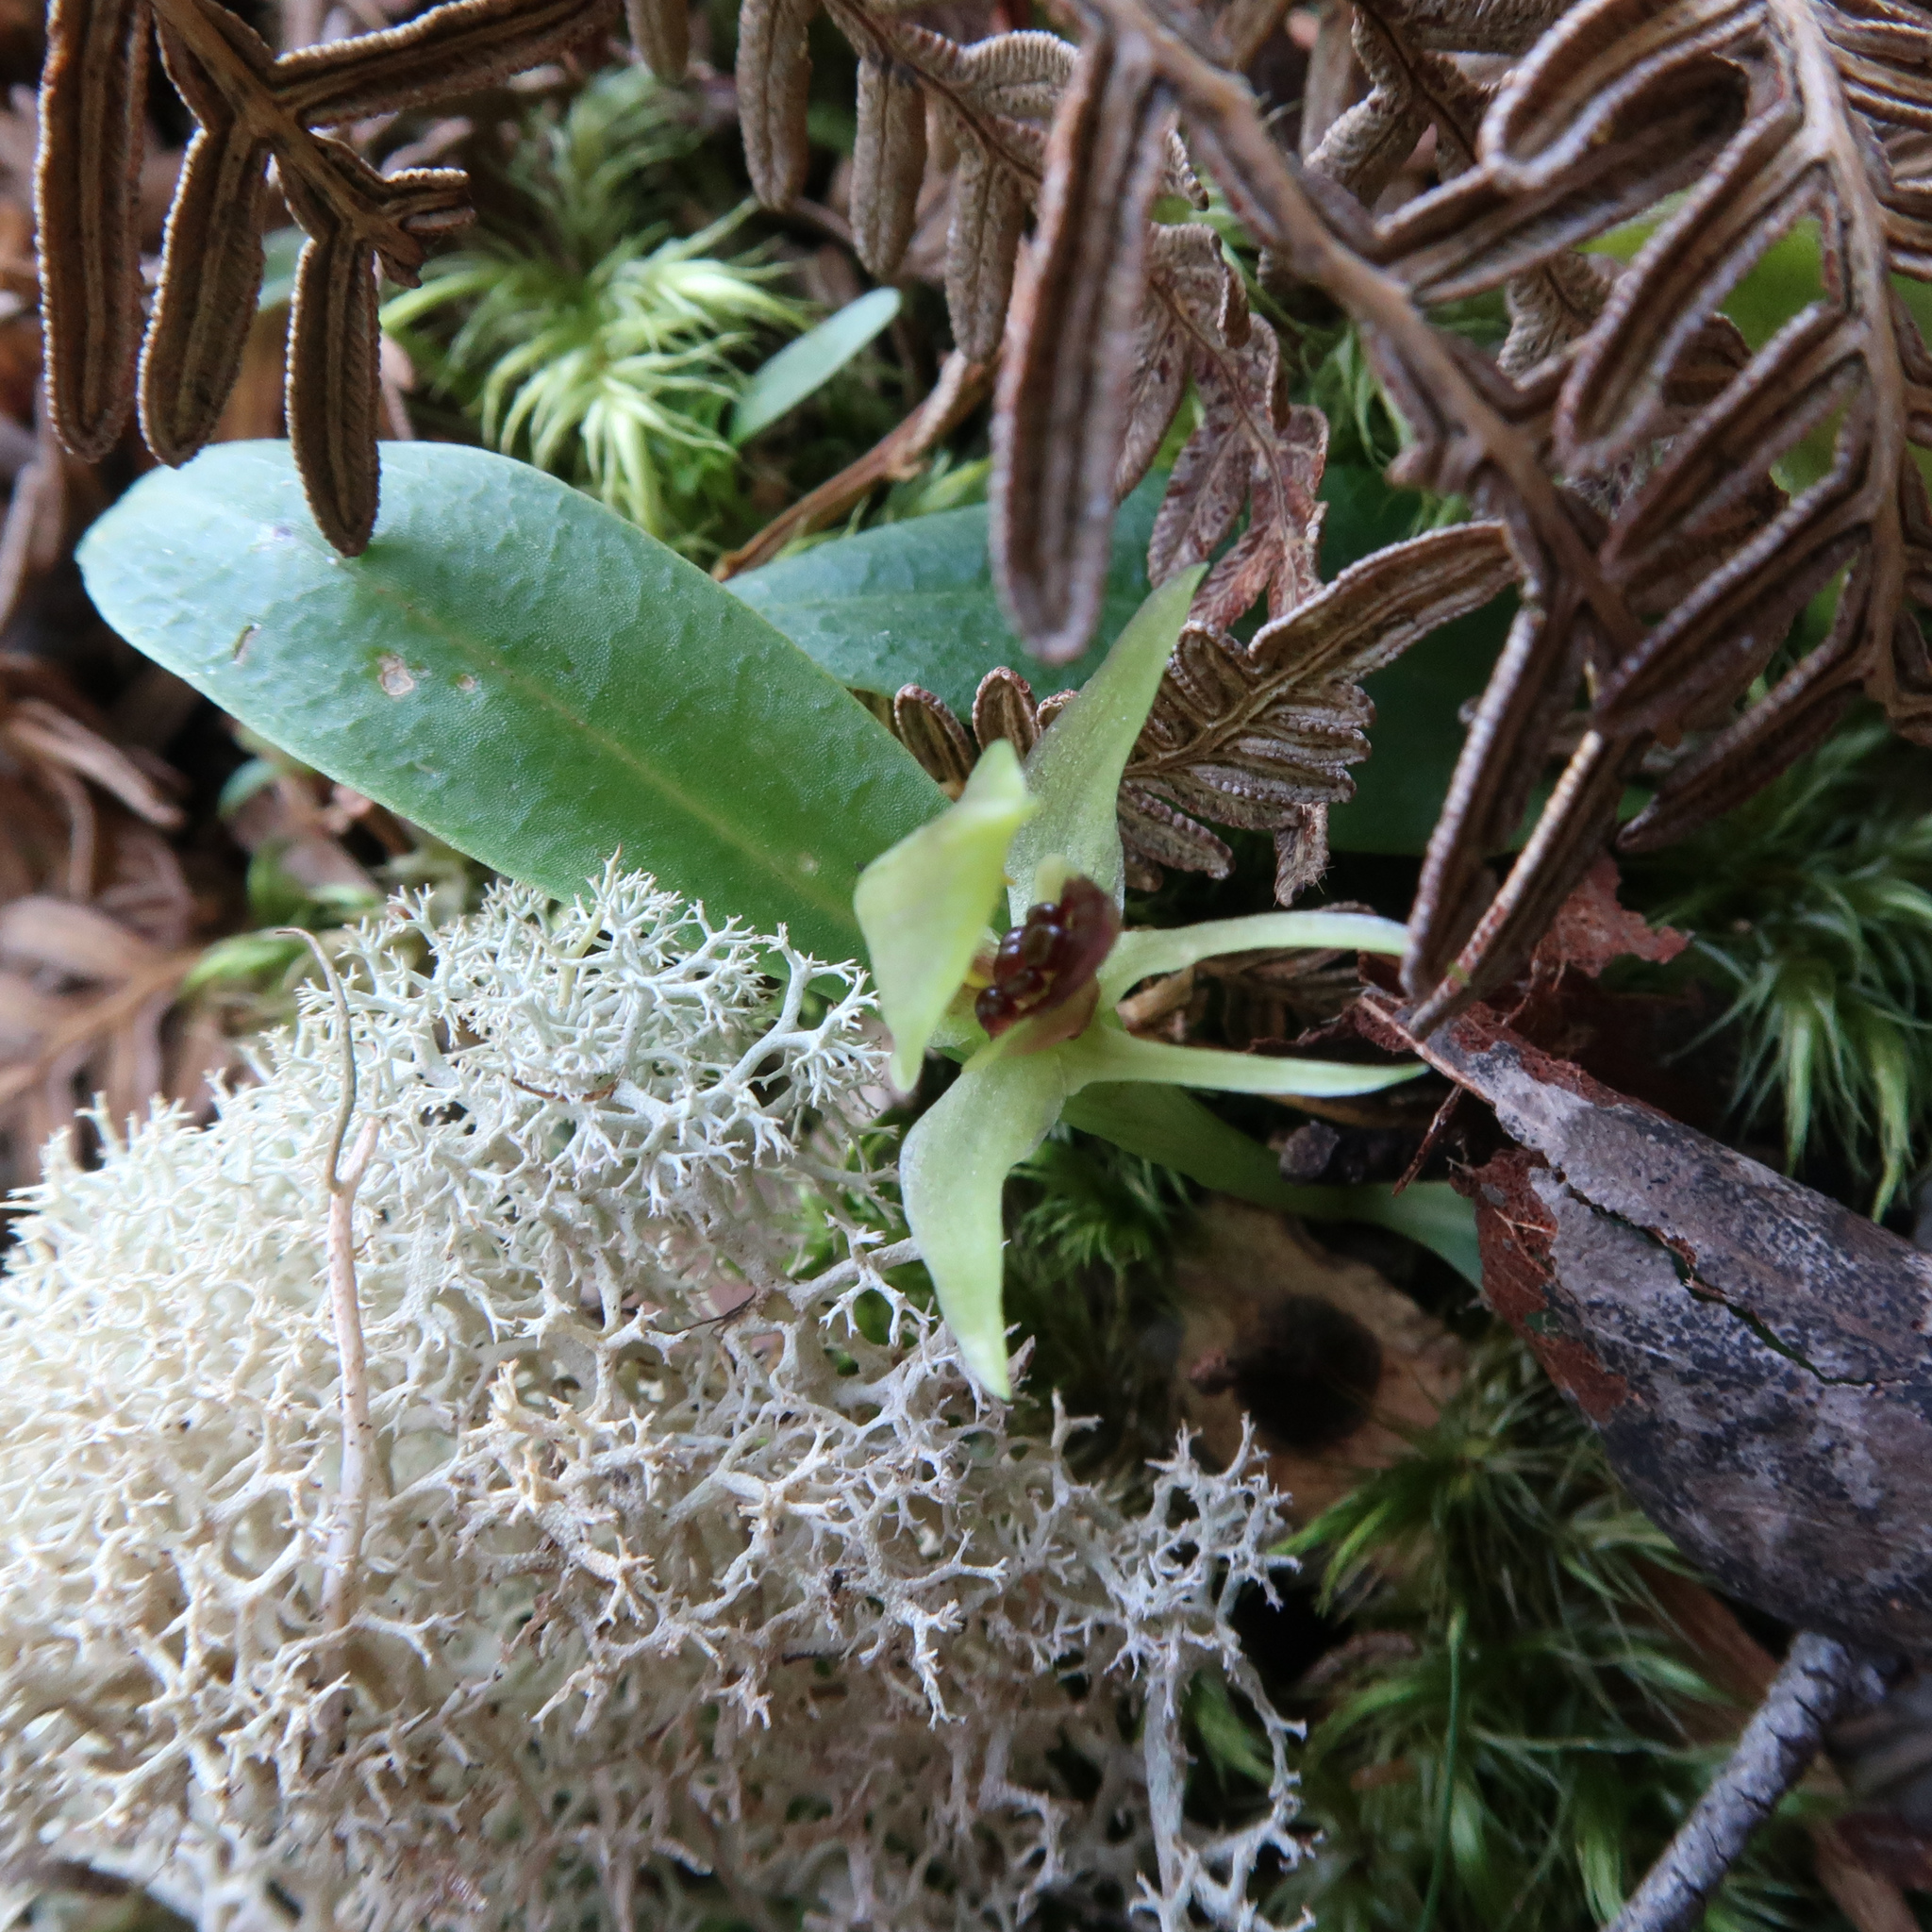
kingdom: Plantae
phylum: Tracheophyta
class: Liliopsida
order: Asparagales
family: Orchidaceae
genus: Chiloglottis
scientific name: Chiloglottis cornuta
